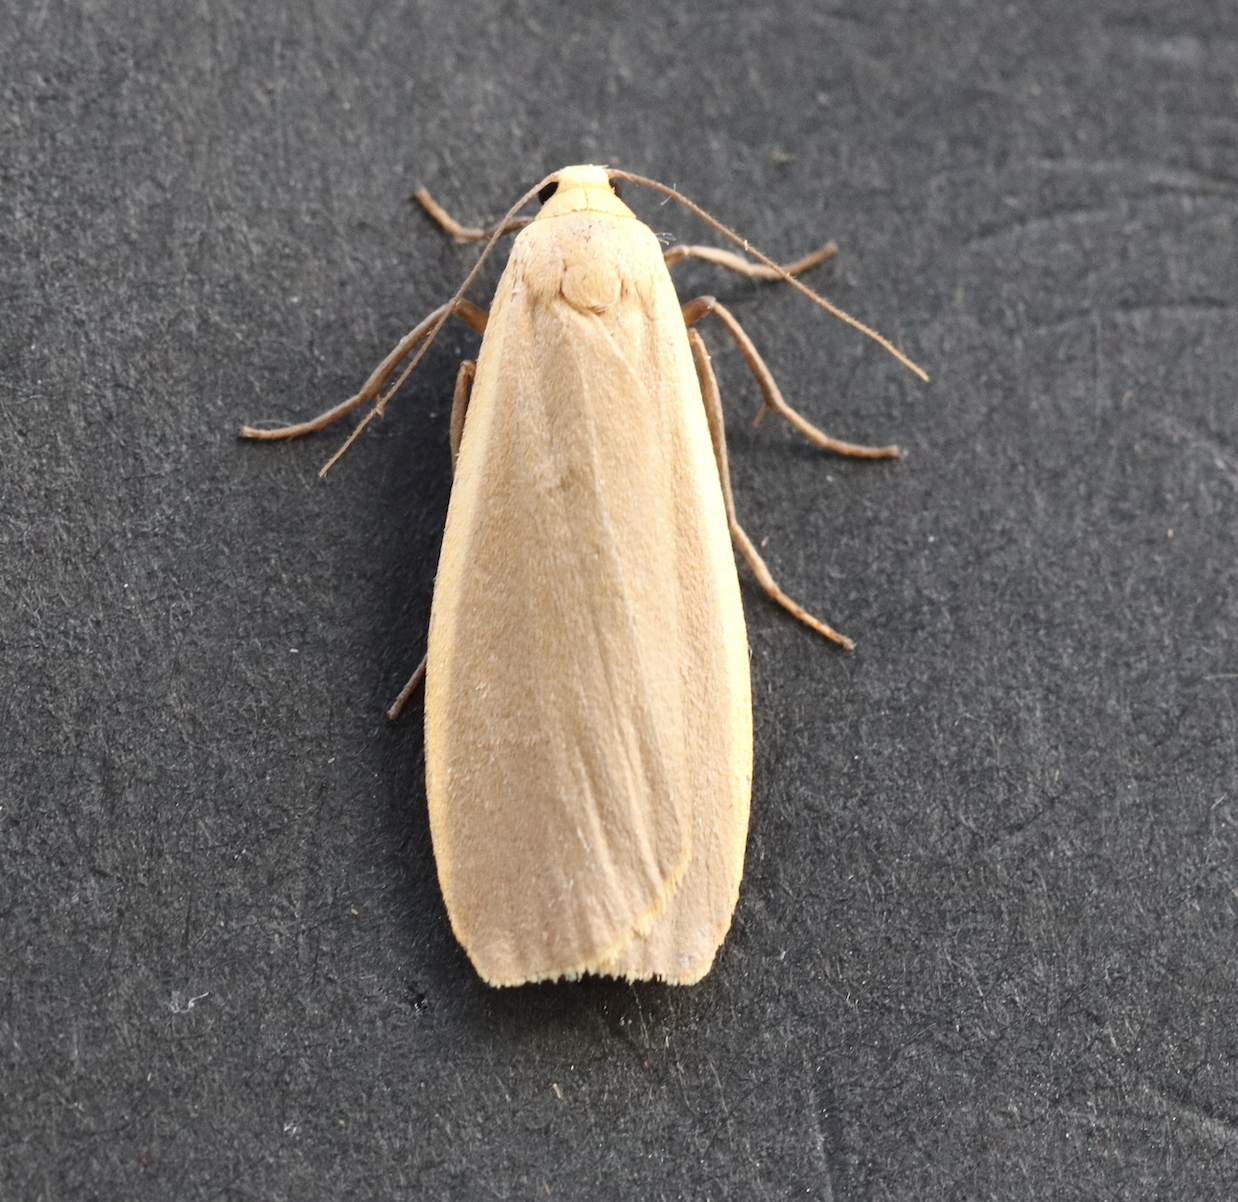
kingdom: Animalia
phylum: Arthropoda
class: Insecta
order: Lepidoptera
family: Erebidae
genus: Collita
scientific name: Collita griseola
